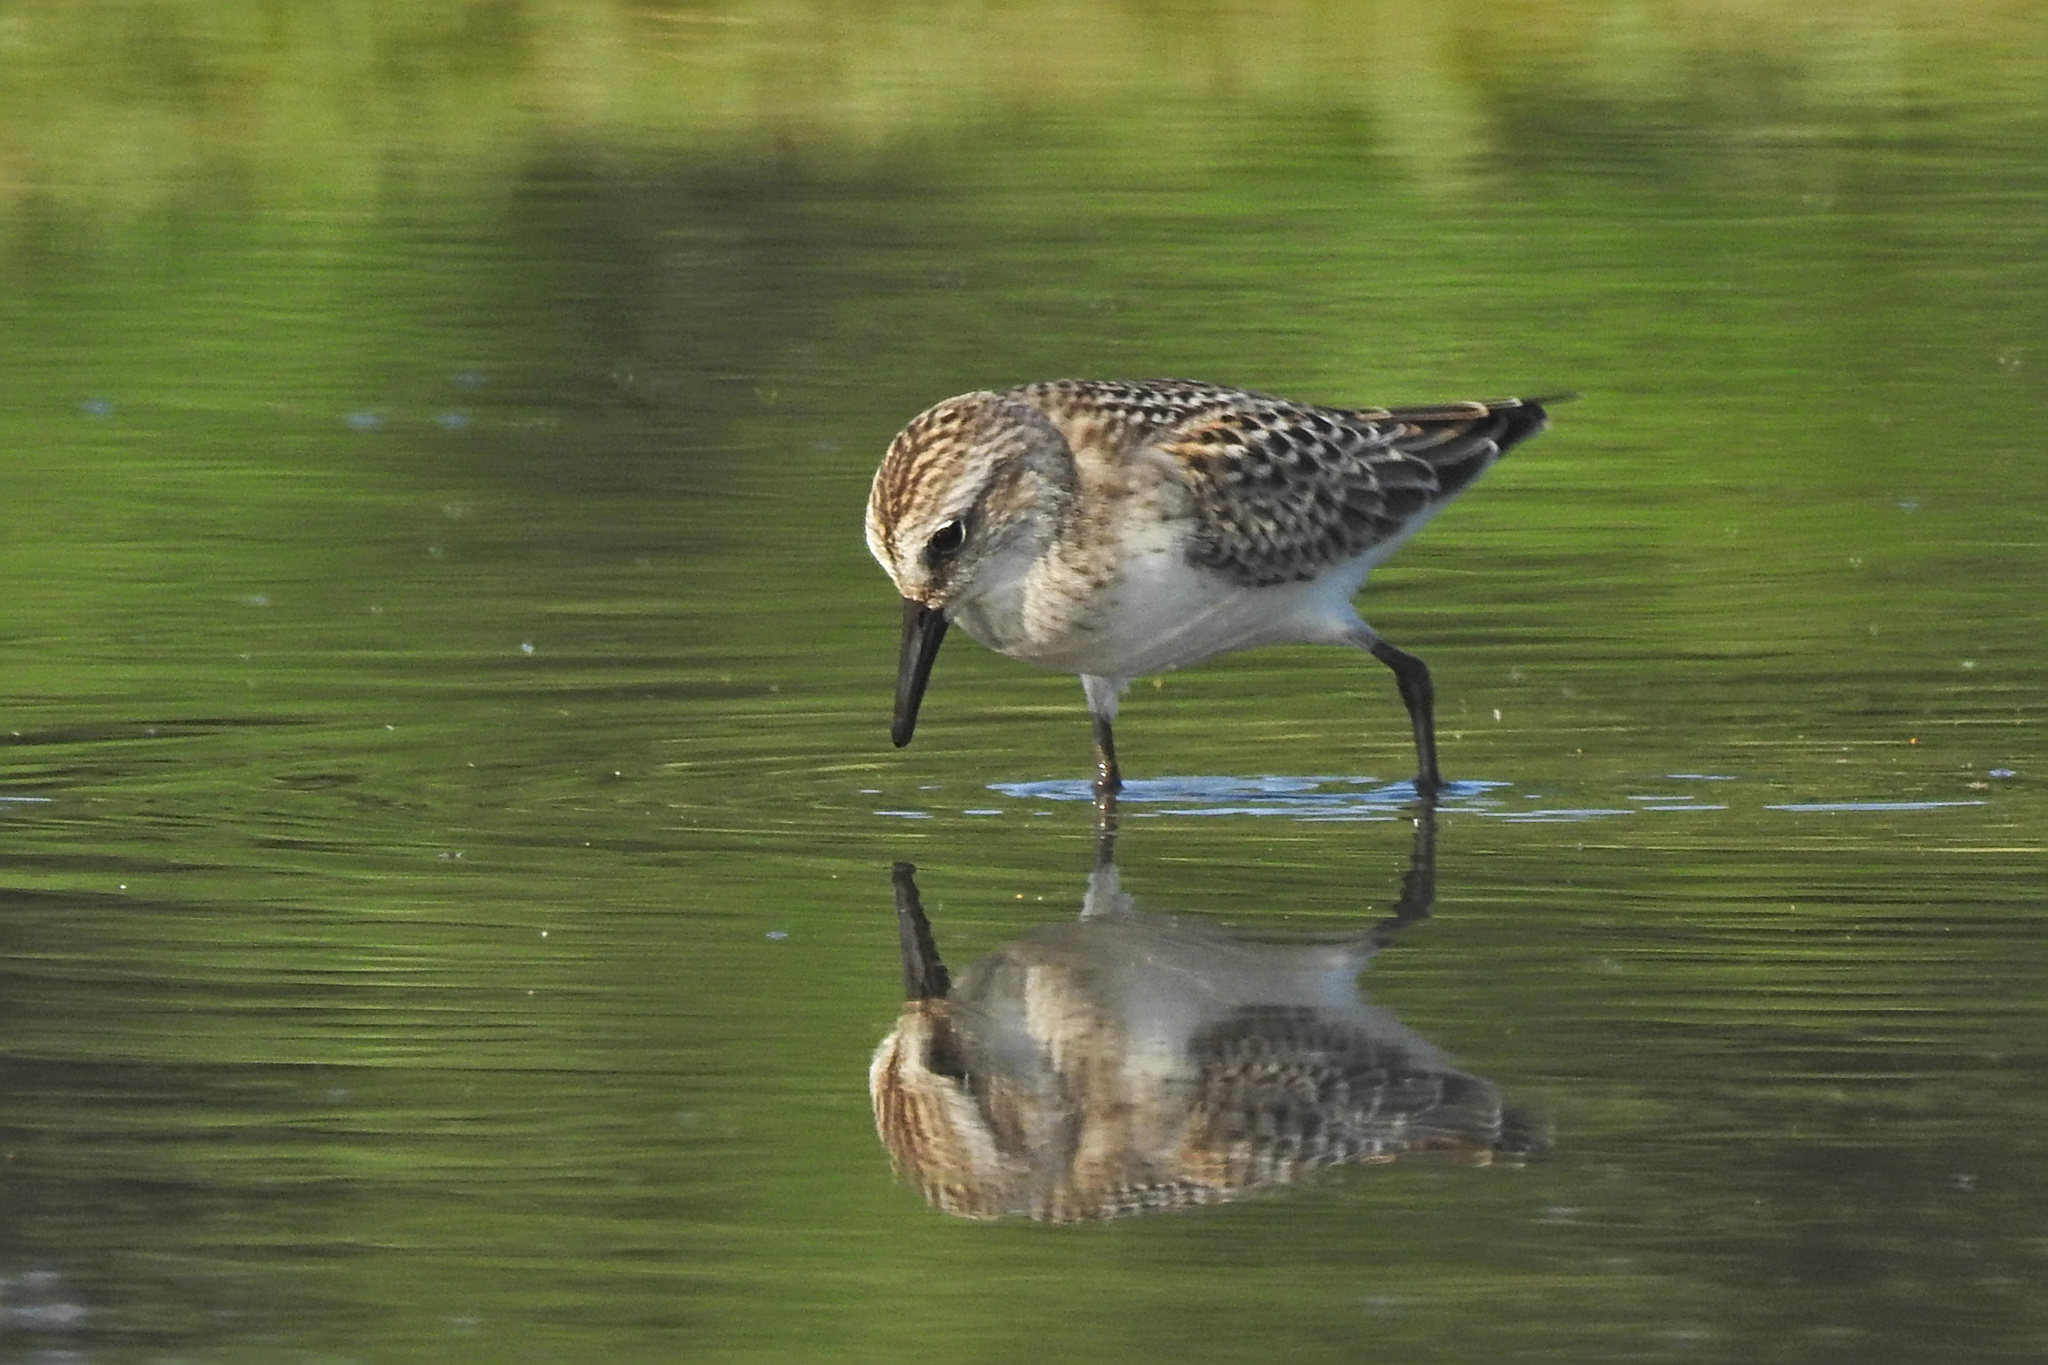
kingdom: Animalia
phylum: Chordata
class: Aves
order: Charadriiformes
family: Scolopacidae
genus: Calidris
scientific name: Calidris pusilla
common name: Semipalmated sandpiper
